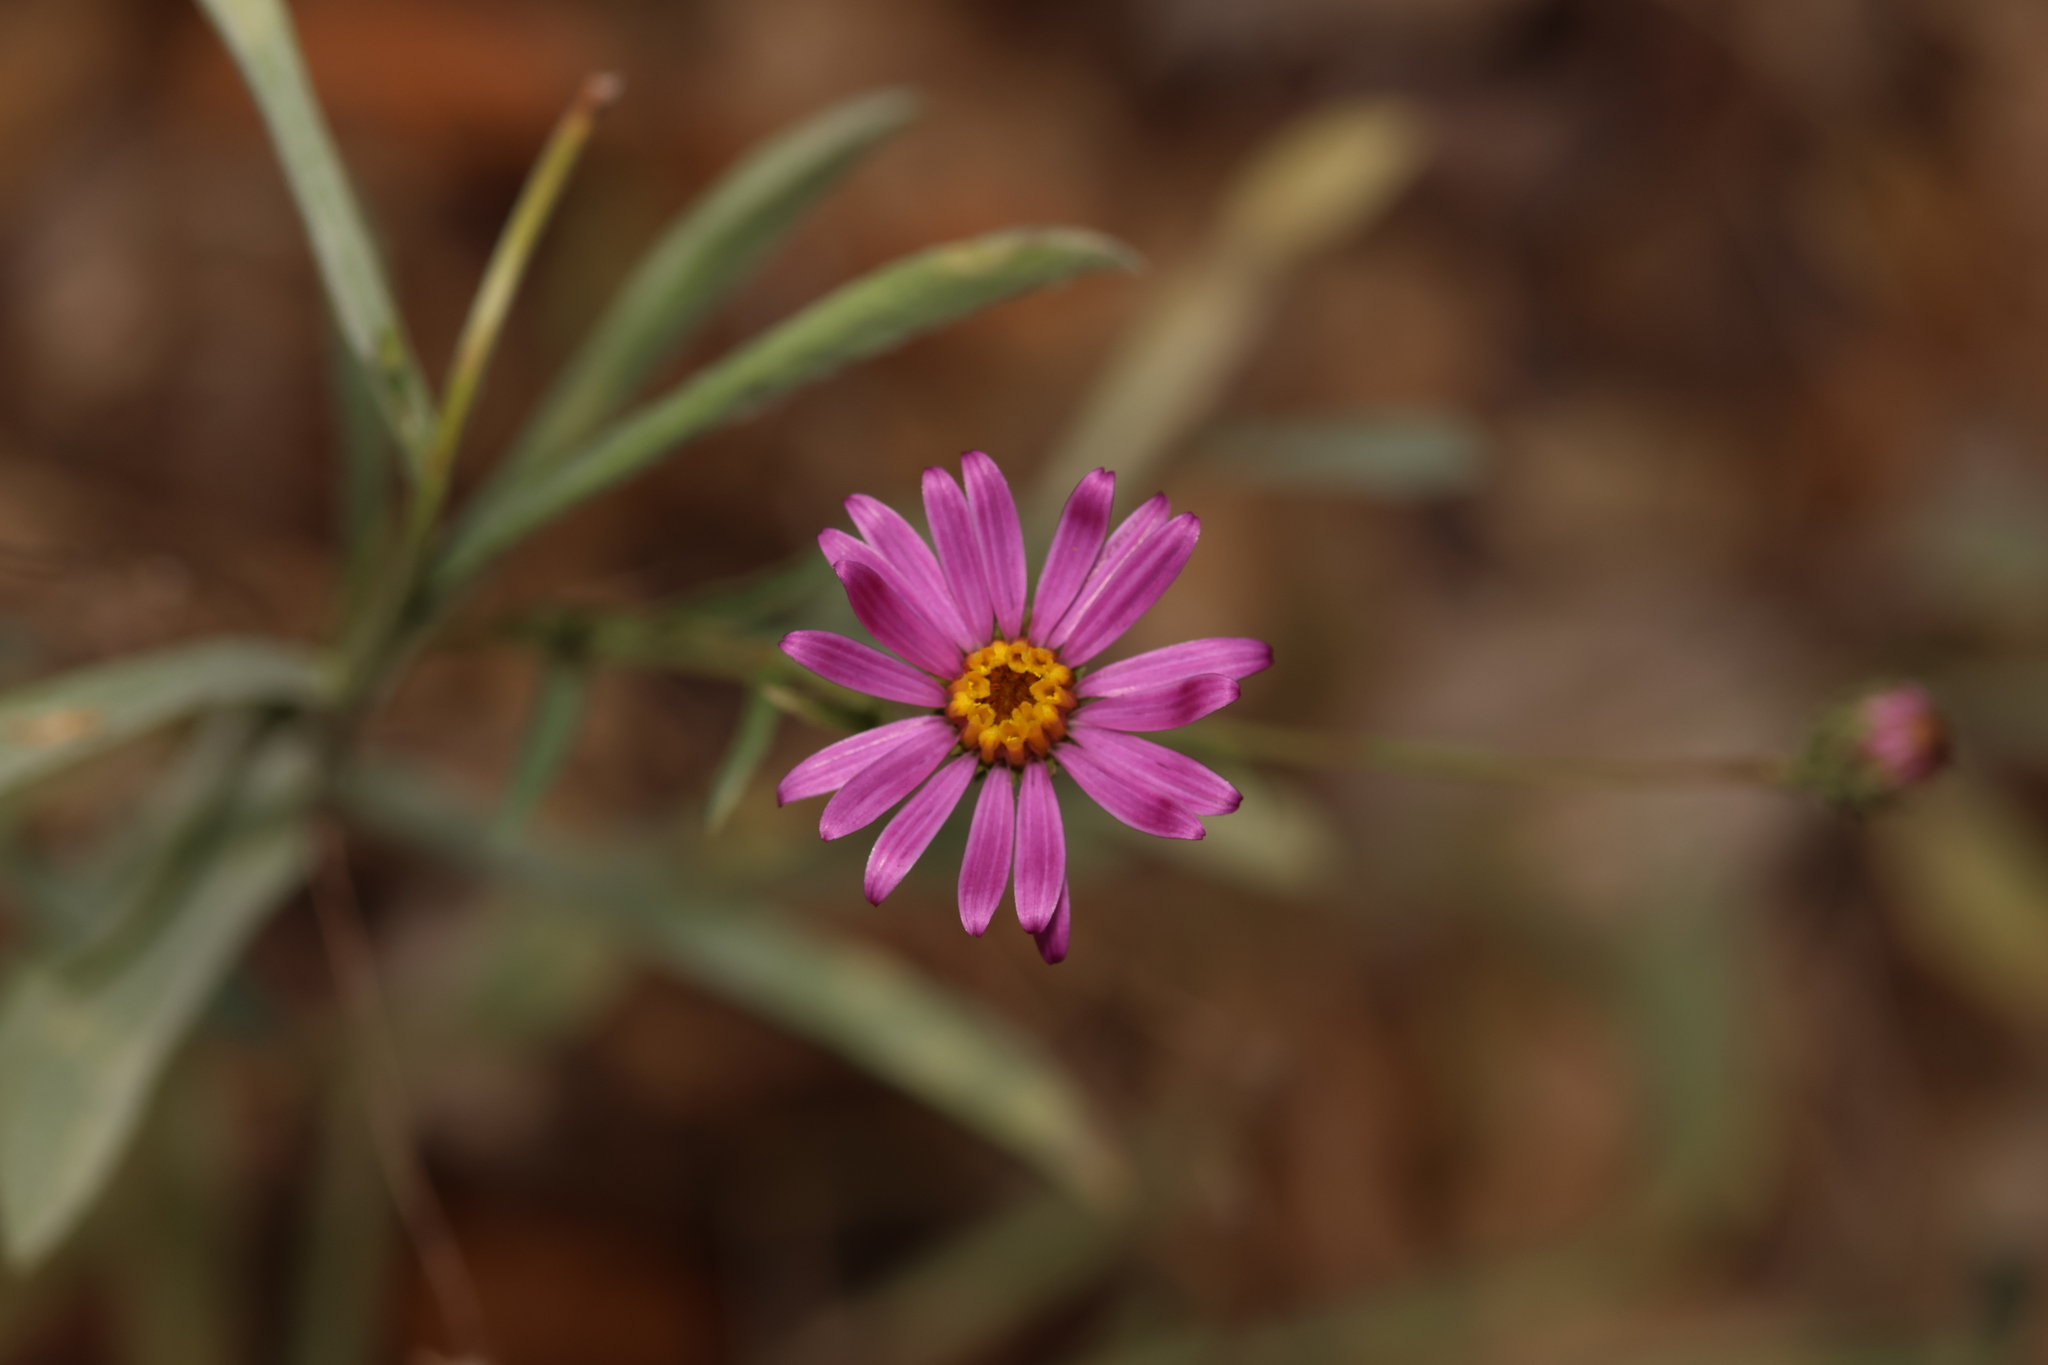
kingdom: Plantae
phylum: Tracheophyta
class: Magnoliopsida
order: Asterales
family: Asteraceae
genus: Corethrogyne
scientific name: Corethrogyne filaginifolia
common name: Sand-aster
